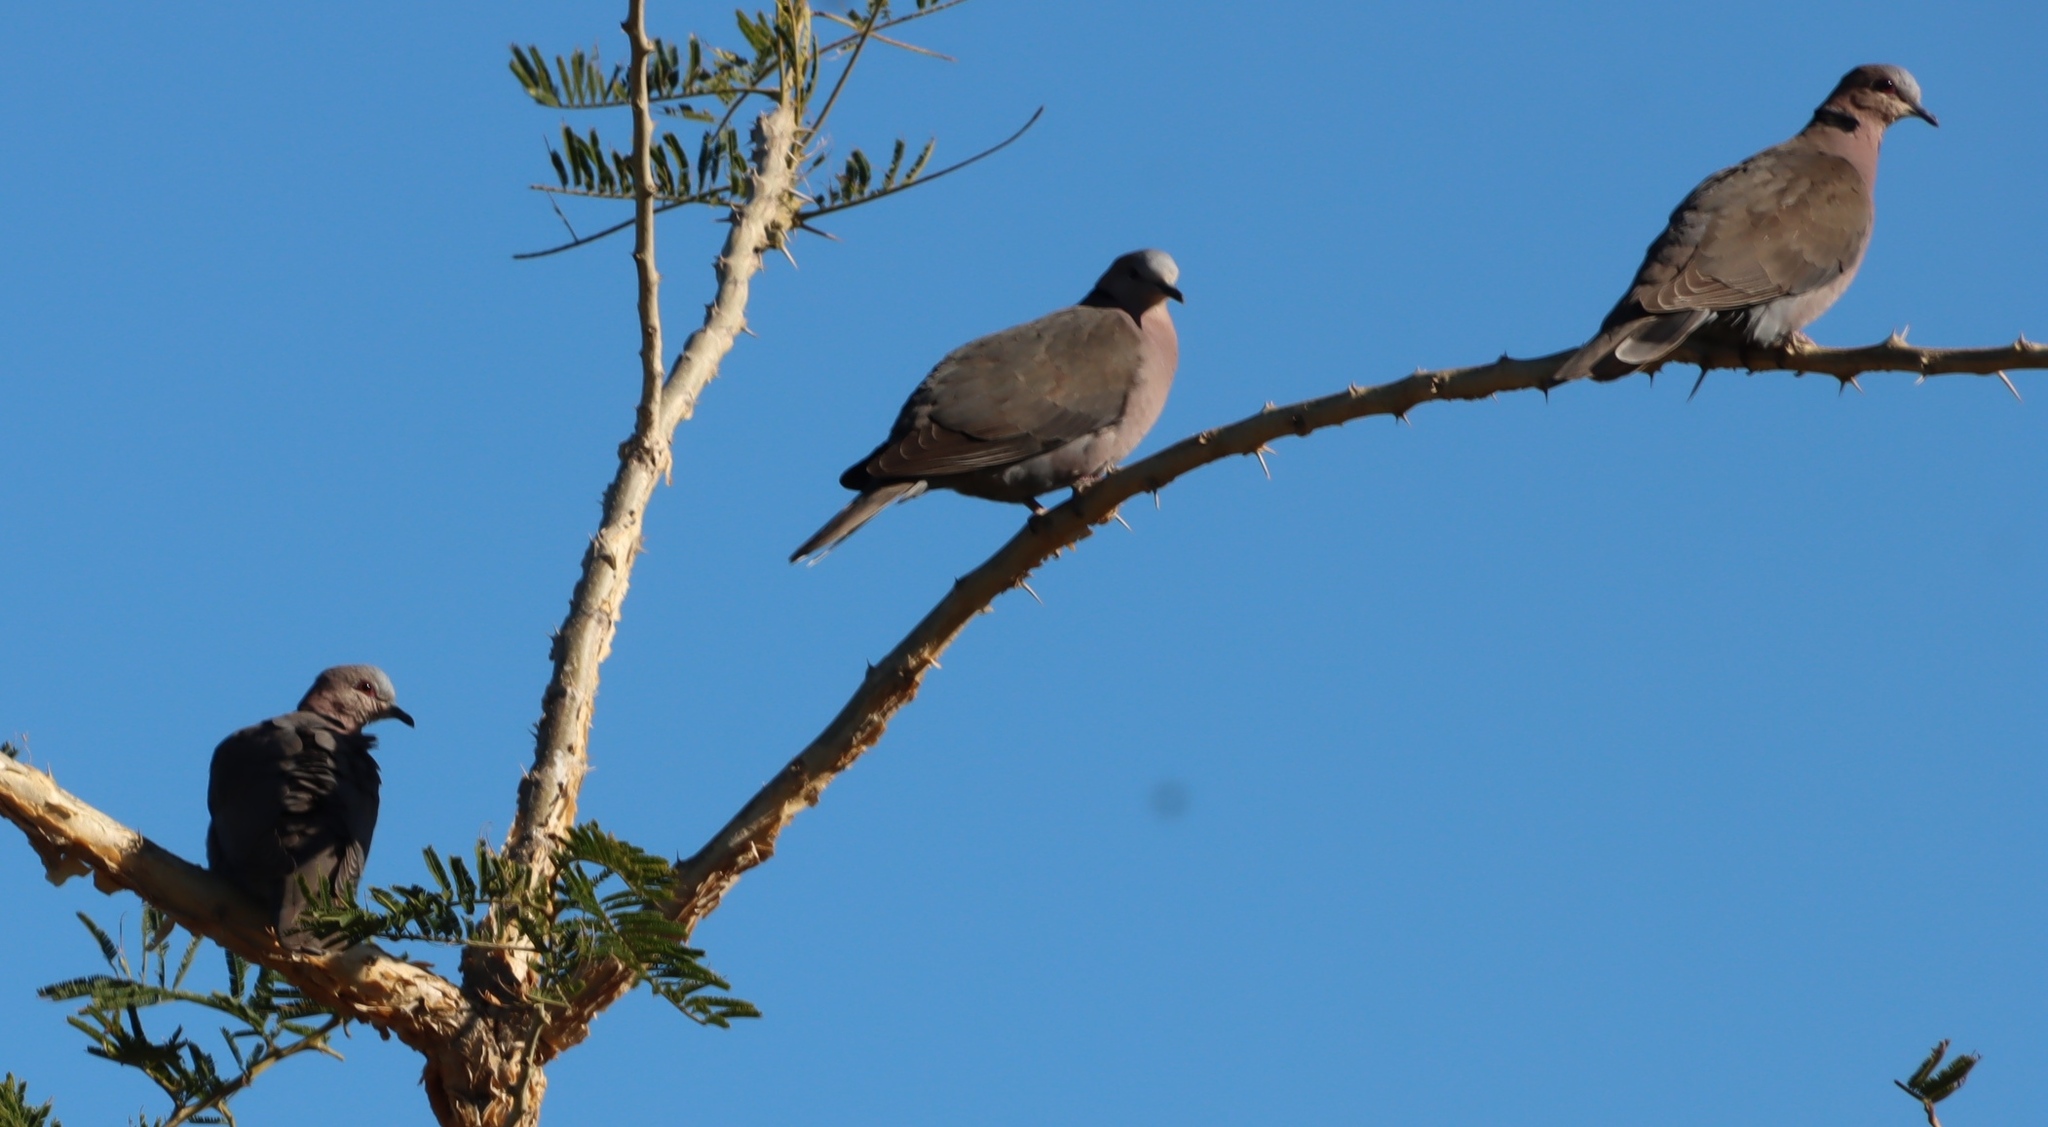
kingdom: Animalia
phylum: Chordata
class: Aves
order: Columbiformes
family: Columbidae
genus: Streptopelia
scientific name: Streptopelia semitorquata
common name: Red-eyed dove
